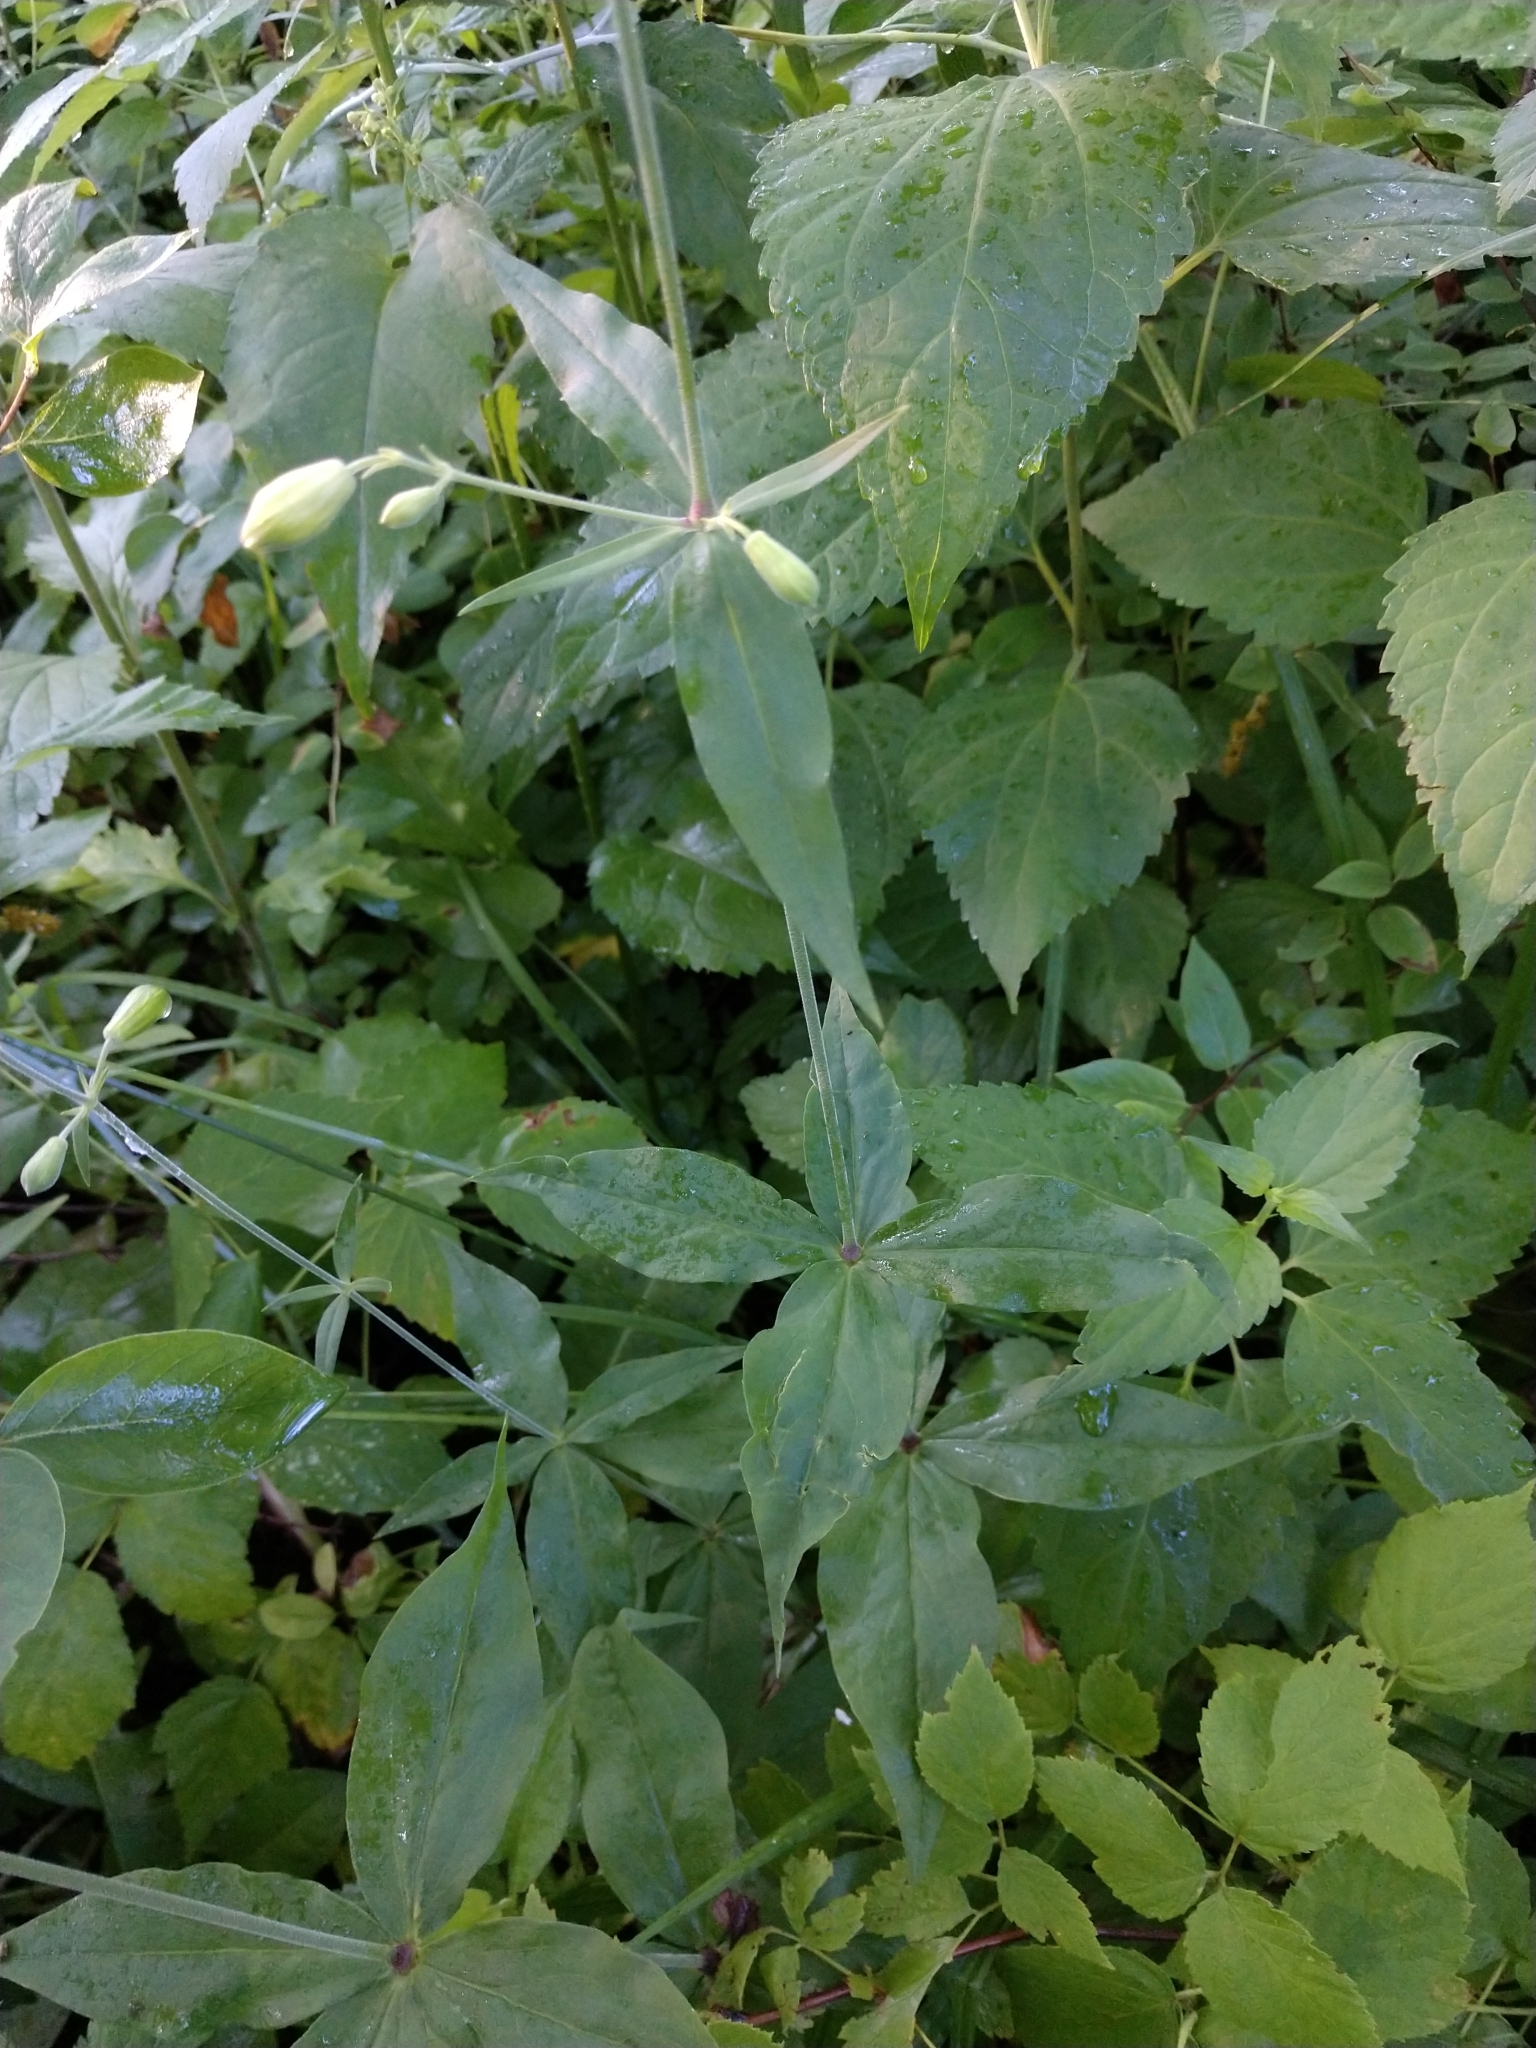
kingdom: Plantae
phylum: Tracheophyta
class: Magnoliopsida
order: Caryophyllales
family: Caryophyllaceae
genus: Silene
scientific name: Silene stellata
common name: Starry campion
